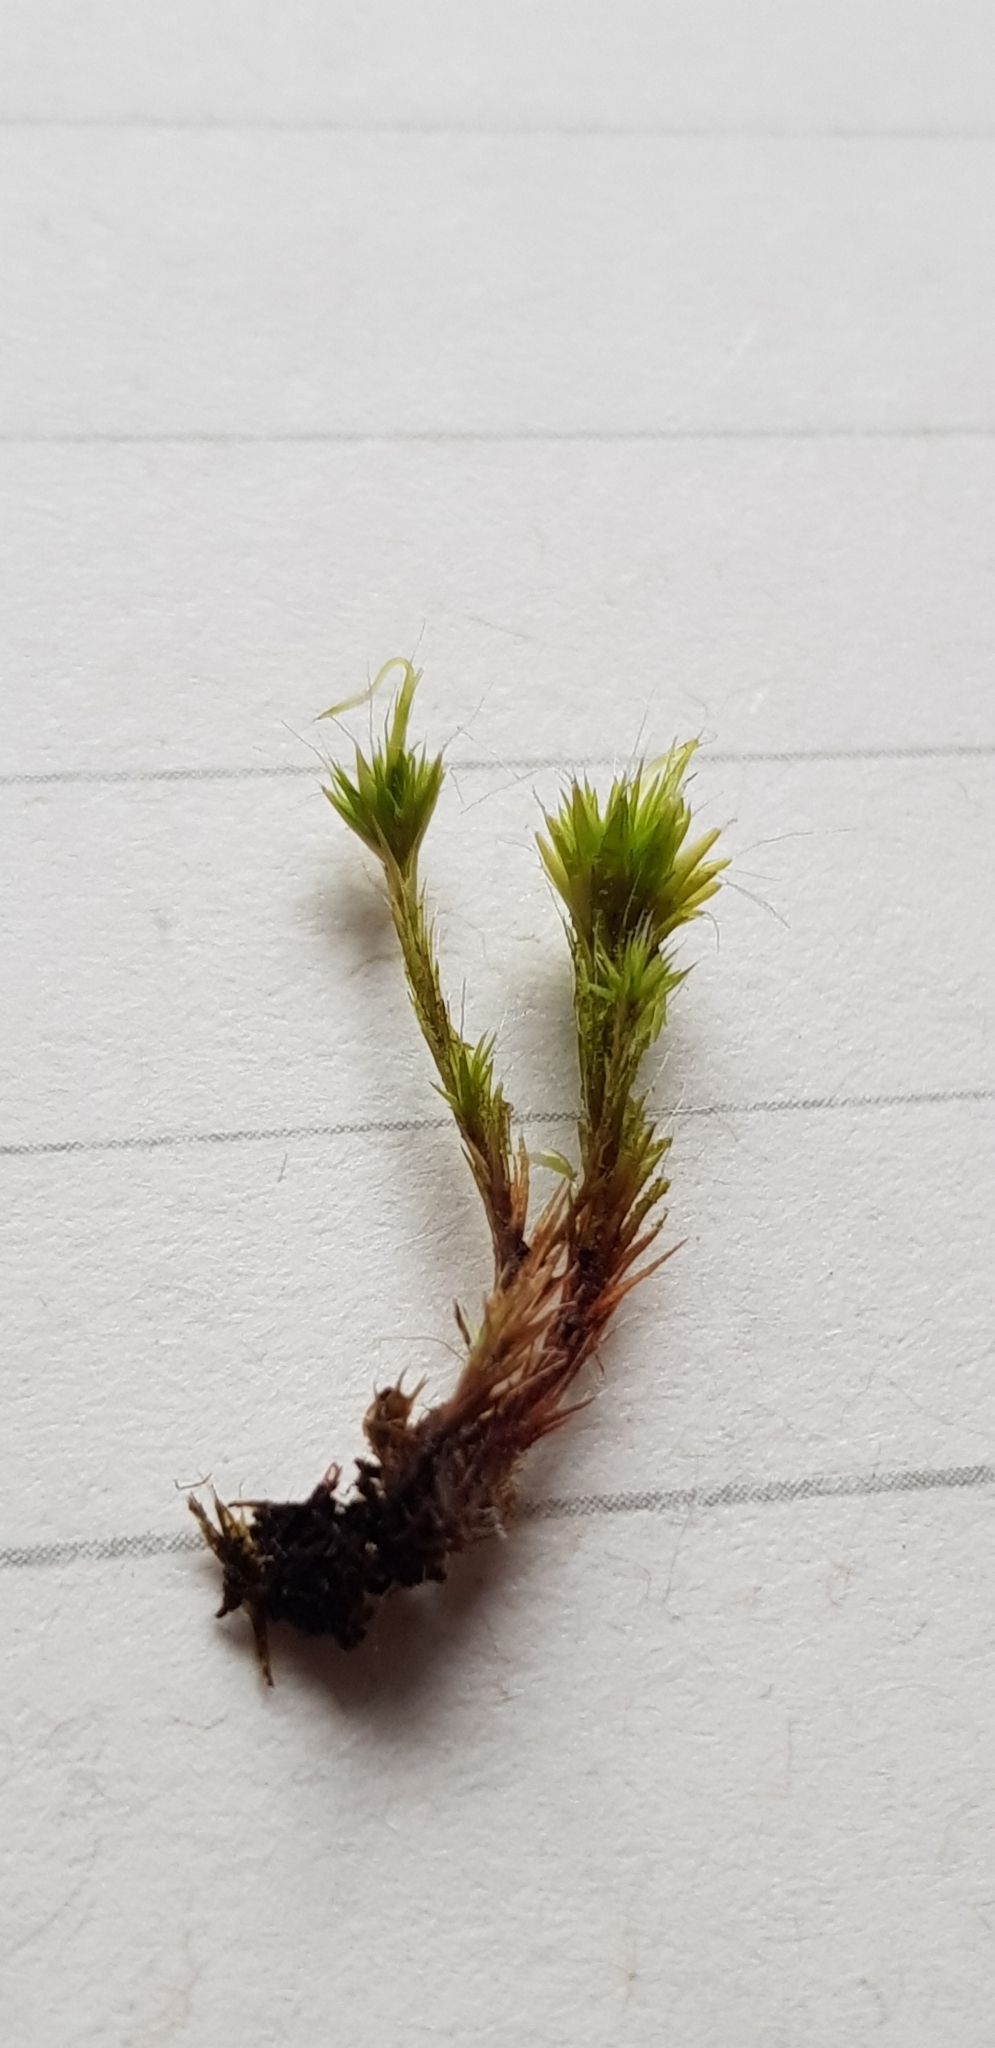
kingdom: Plantae
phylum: Bryophyta
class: Bryopsida
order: Dicranales
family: Leucobryaceae
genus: Campylopus
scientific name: Campylopus introflexus
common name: Heath star moss
